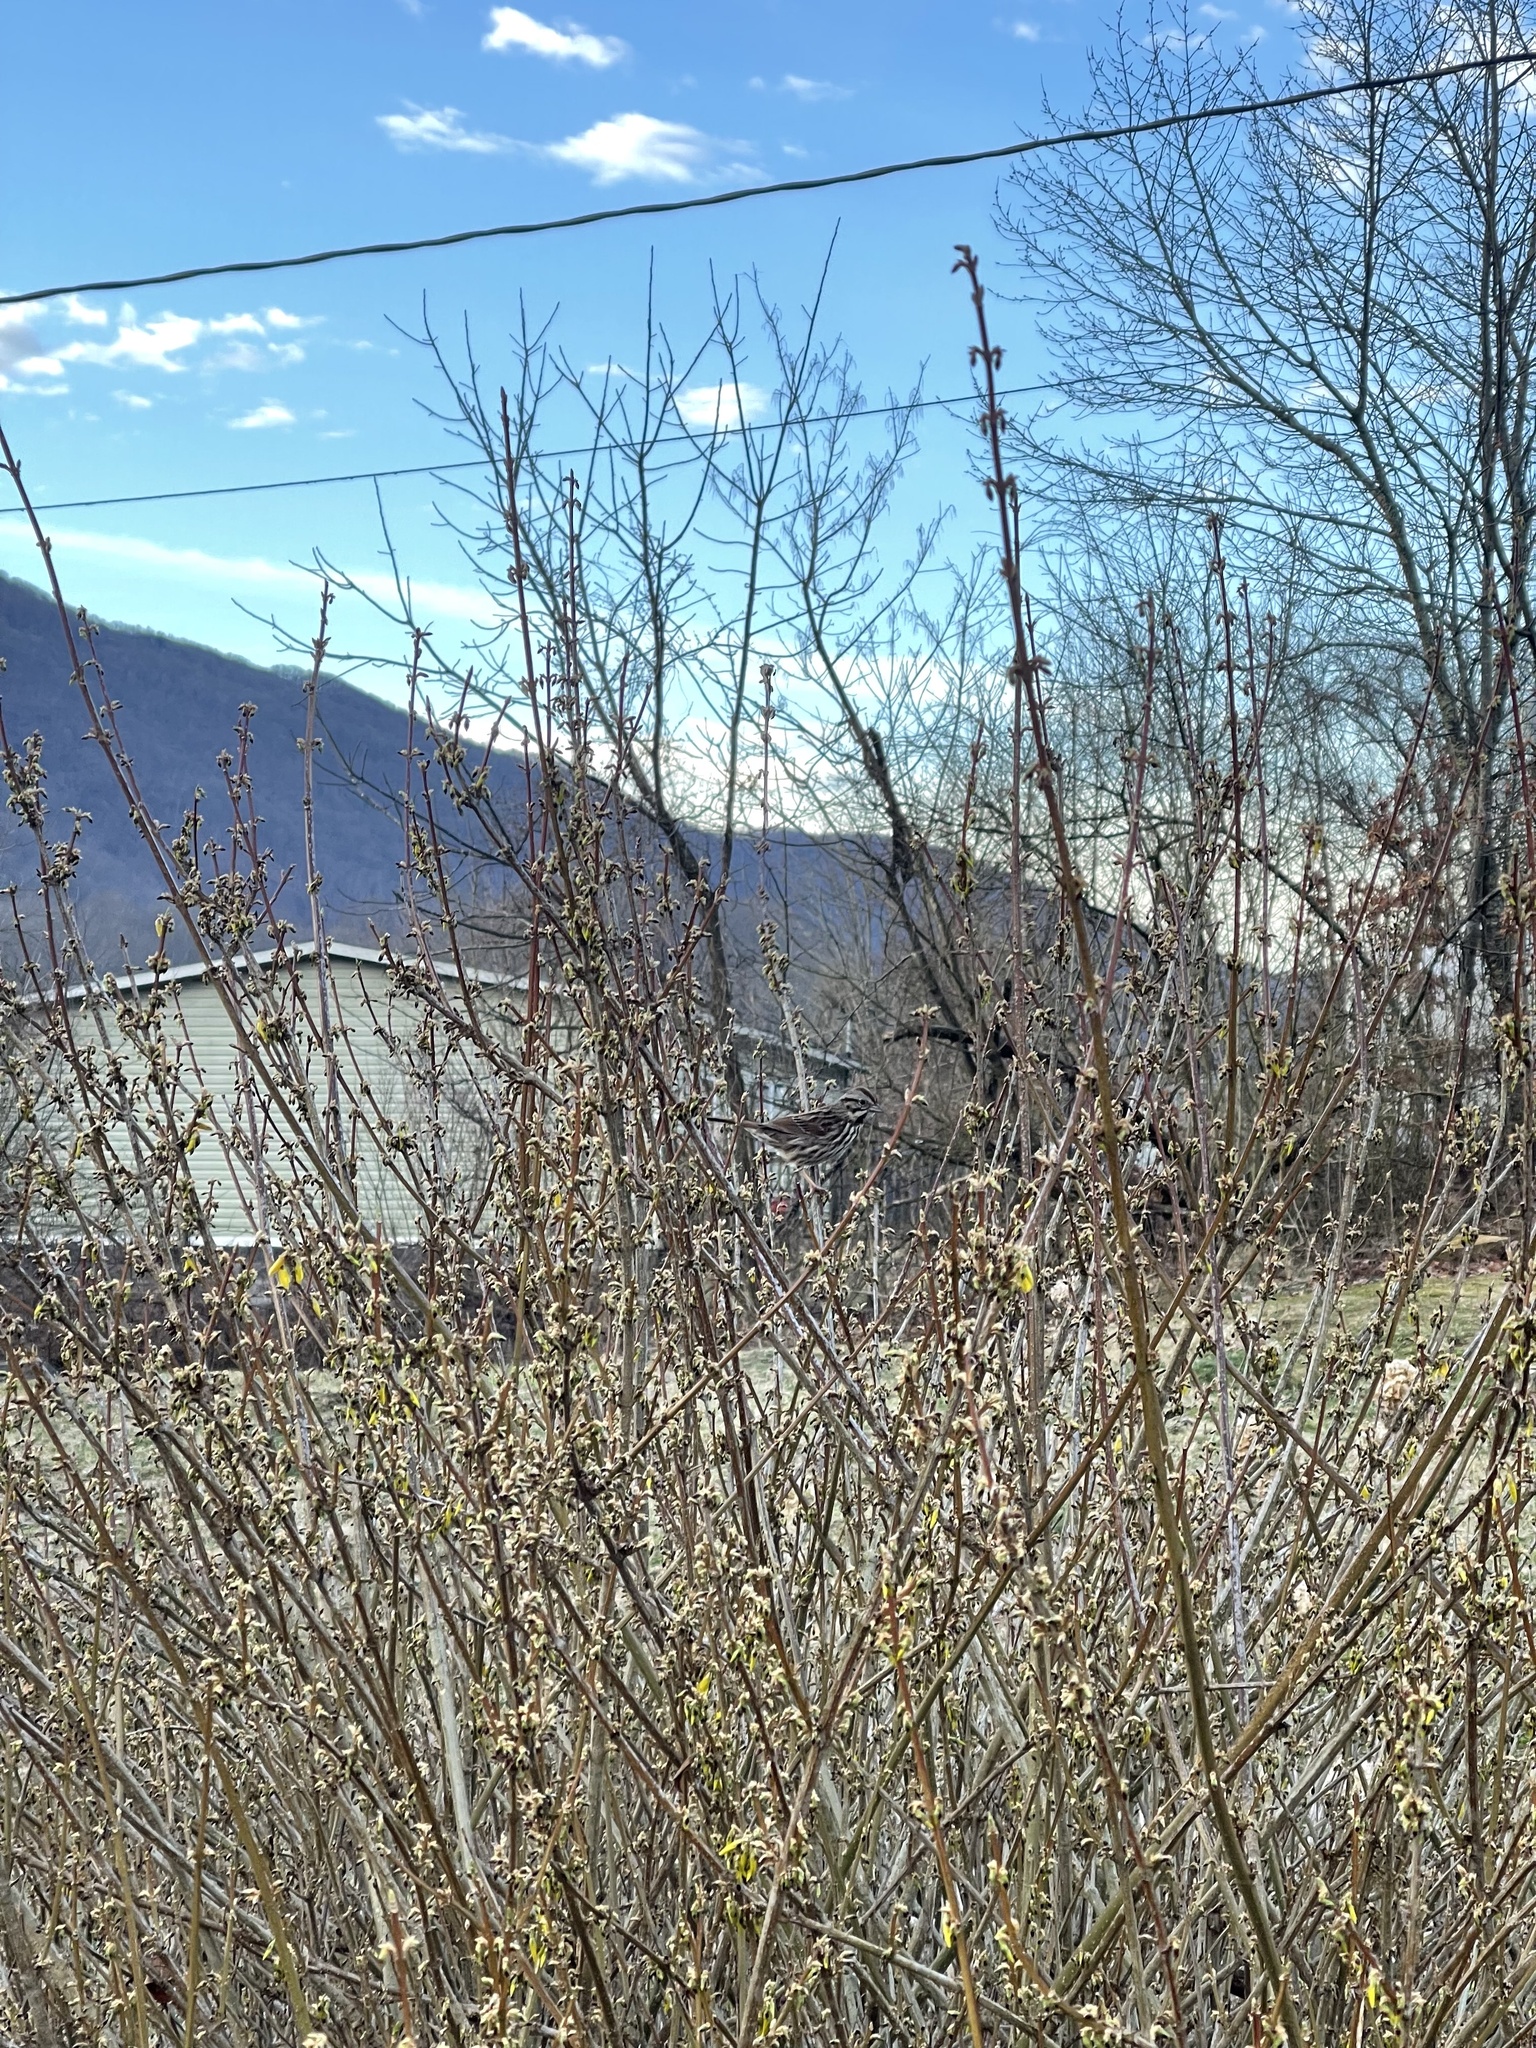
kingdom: Animalia
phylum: Chordata
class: Aves
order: Passeriformes
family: Passerellidae
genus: Melospiza
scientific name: Melospiza melodia
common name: Song sparrow
